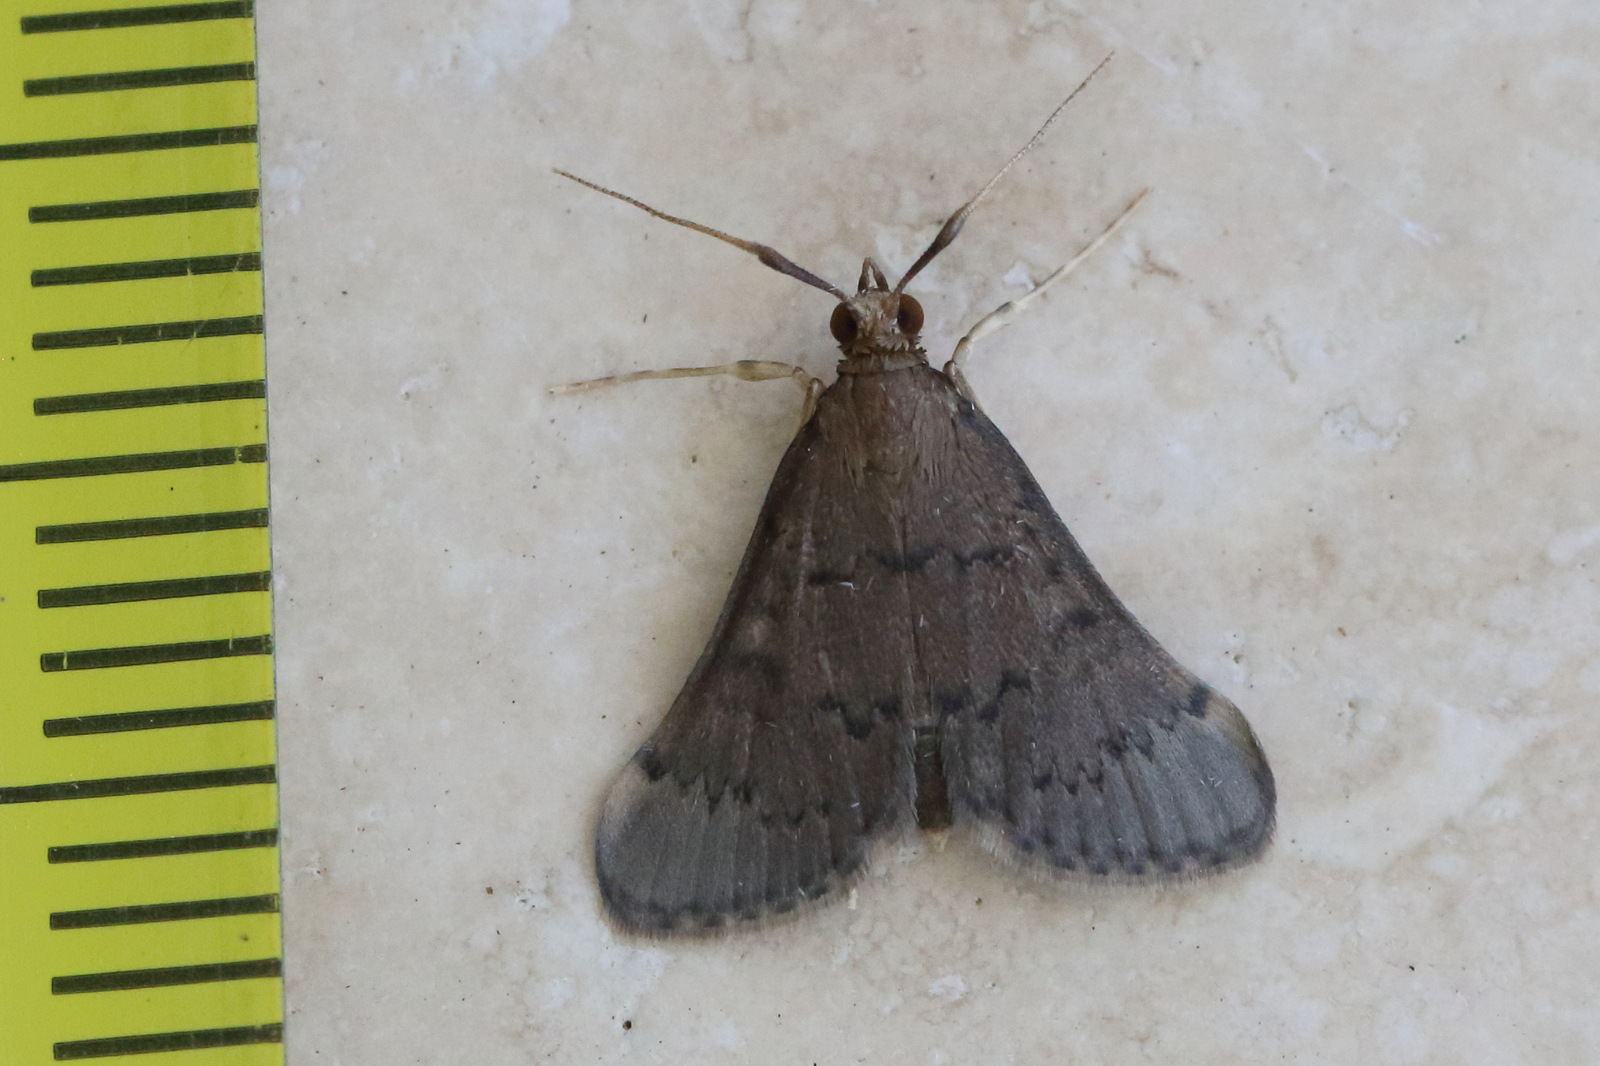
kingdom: Animalia
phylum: Arthropoda
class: Insecta
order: Lepidoptera
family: Crambidae
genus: Piletocera
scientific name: Piletocera macroperalis
